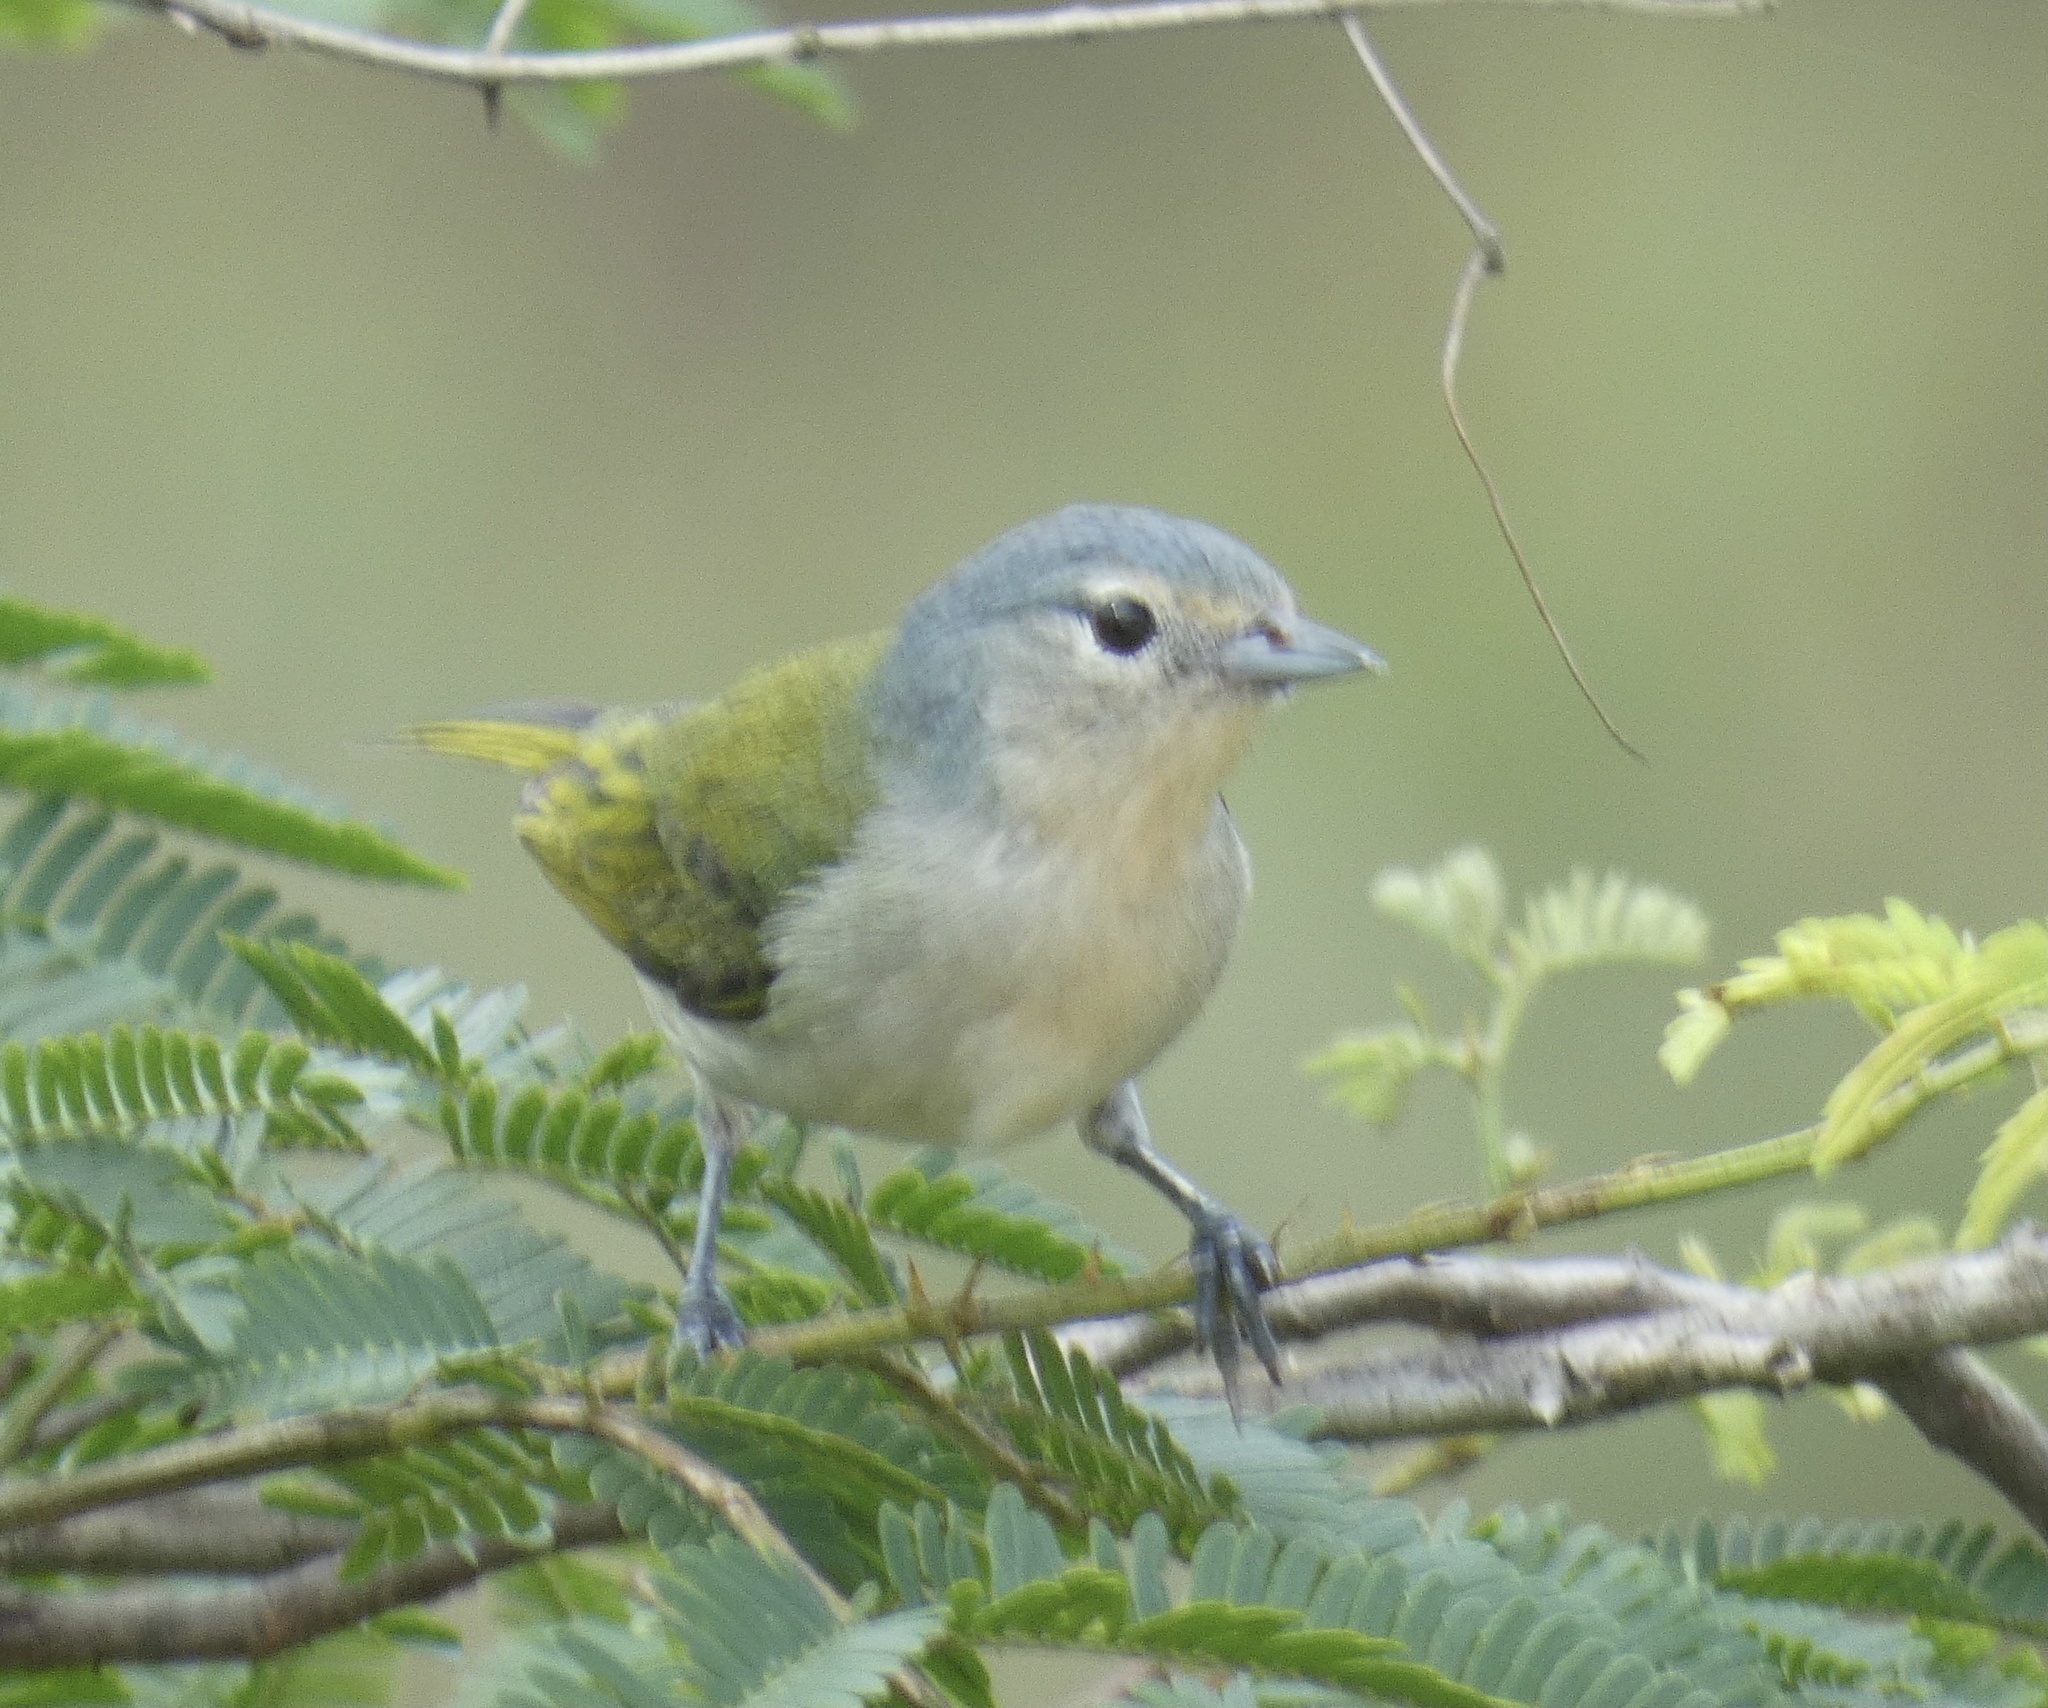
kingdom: Animalia
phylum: Chordata
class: Aves
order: Passeriformes
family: Thraupidae
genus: Conirostrum
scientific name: Conirostrum speciosum
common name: Chestnut-vented conebill
